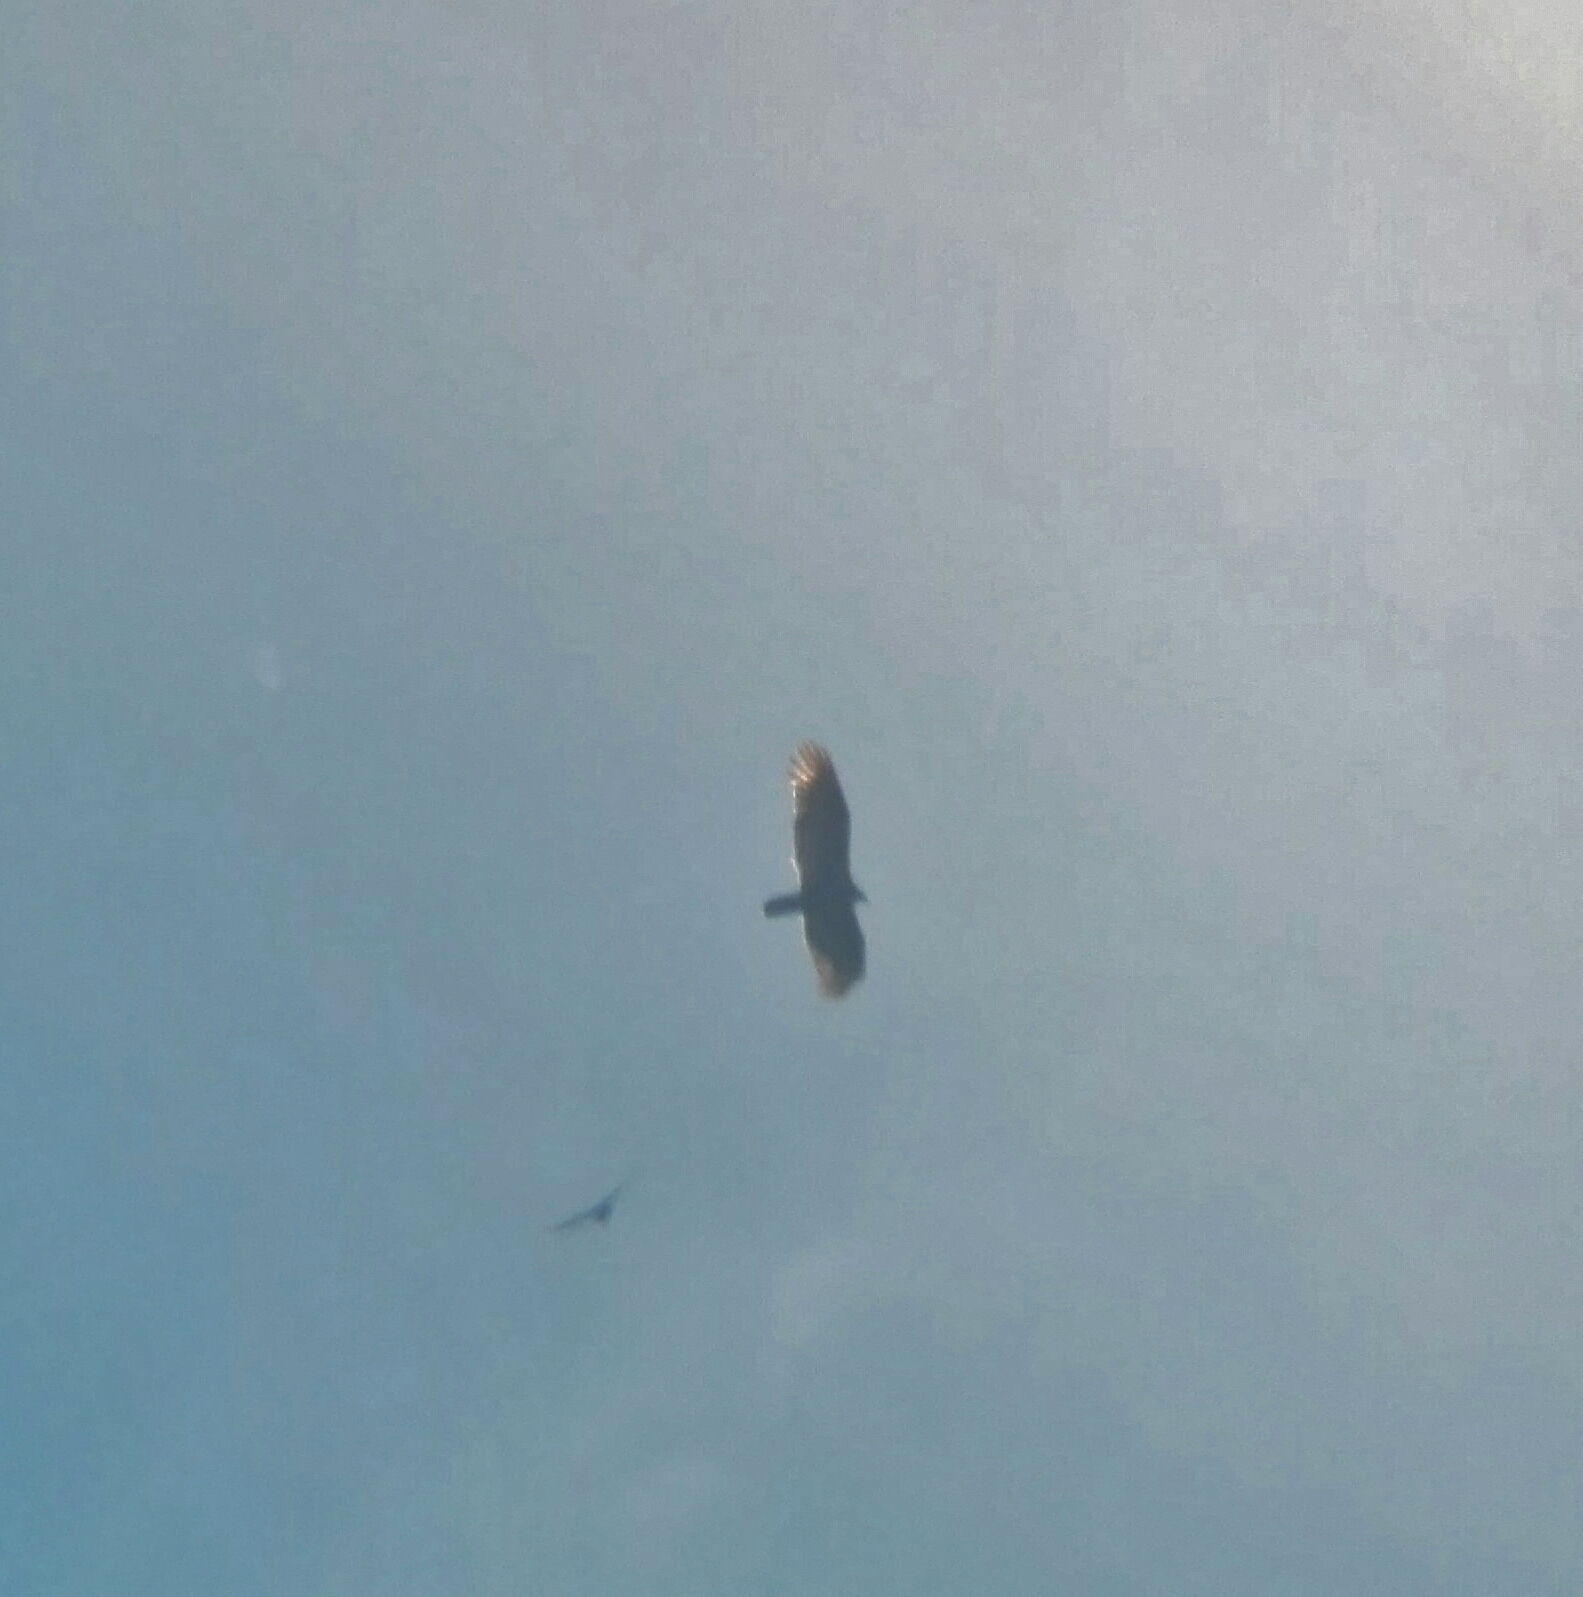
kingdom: Animalia
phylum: Chordata
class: Aves
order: Accipitriformes
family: Cathartidae
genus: Cathartes
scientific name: Cathartes aura
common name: Turkey vulture
